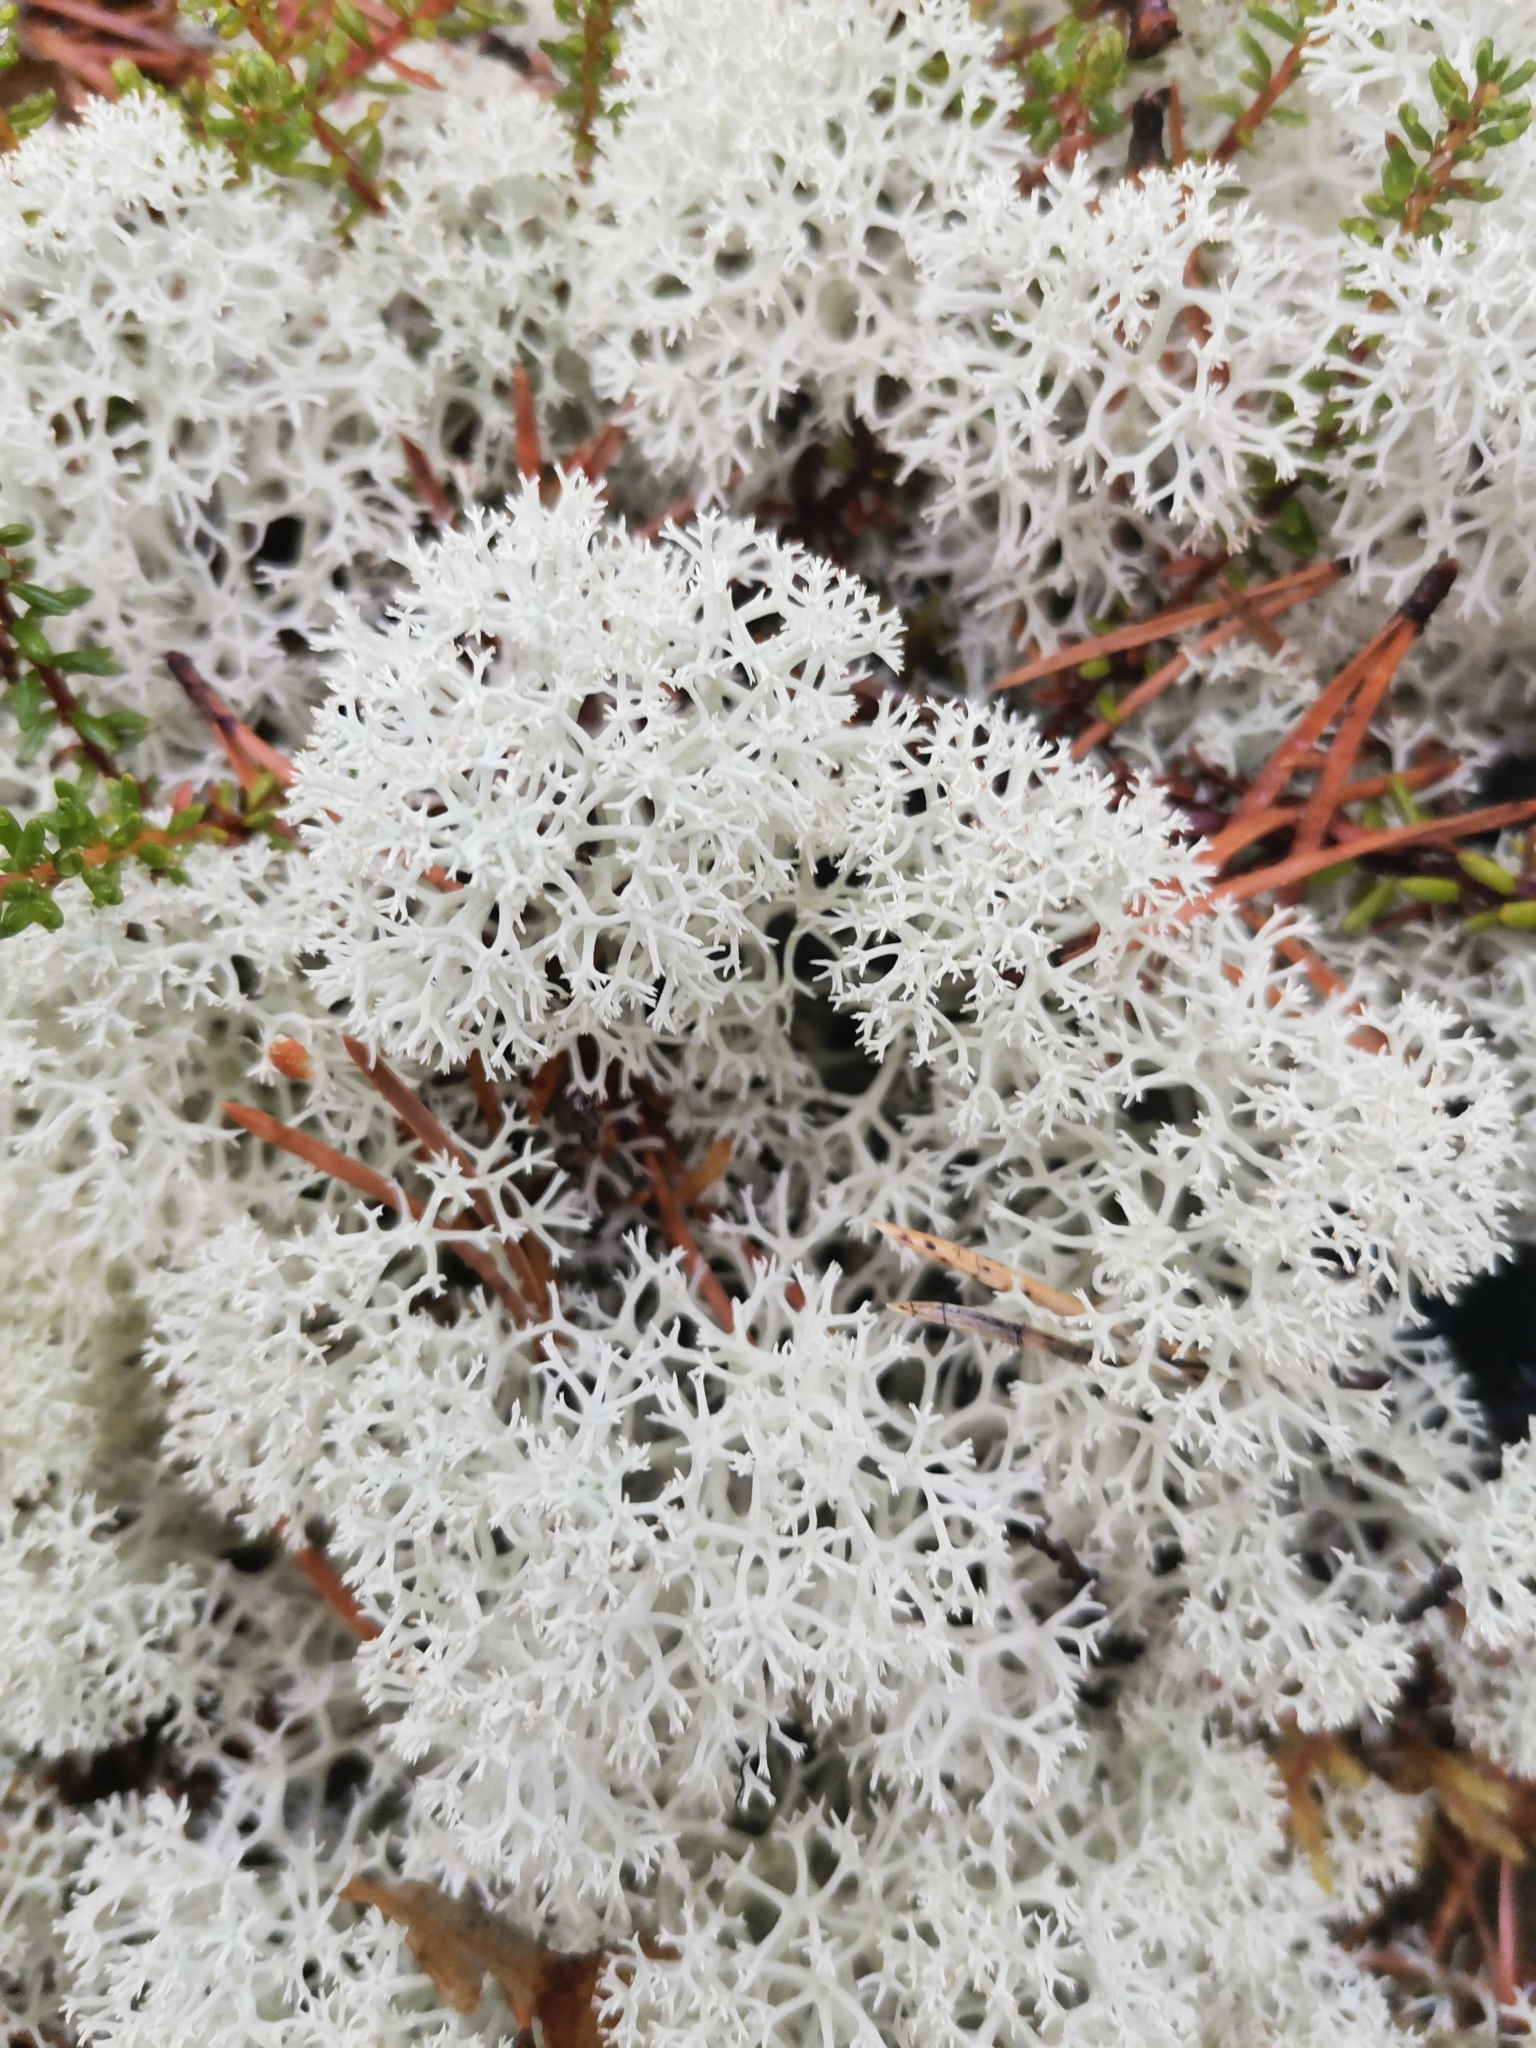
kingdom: Fungi
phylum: Ascomycota
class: Lecanoromycetes
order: Lecanorales
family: Cladoniaceae
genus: Cladonia
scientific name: Cladonia stellaris
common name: Star-tipped reindeer lichen
